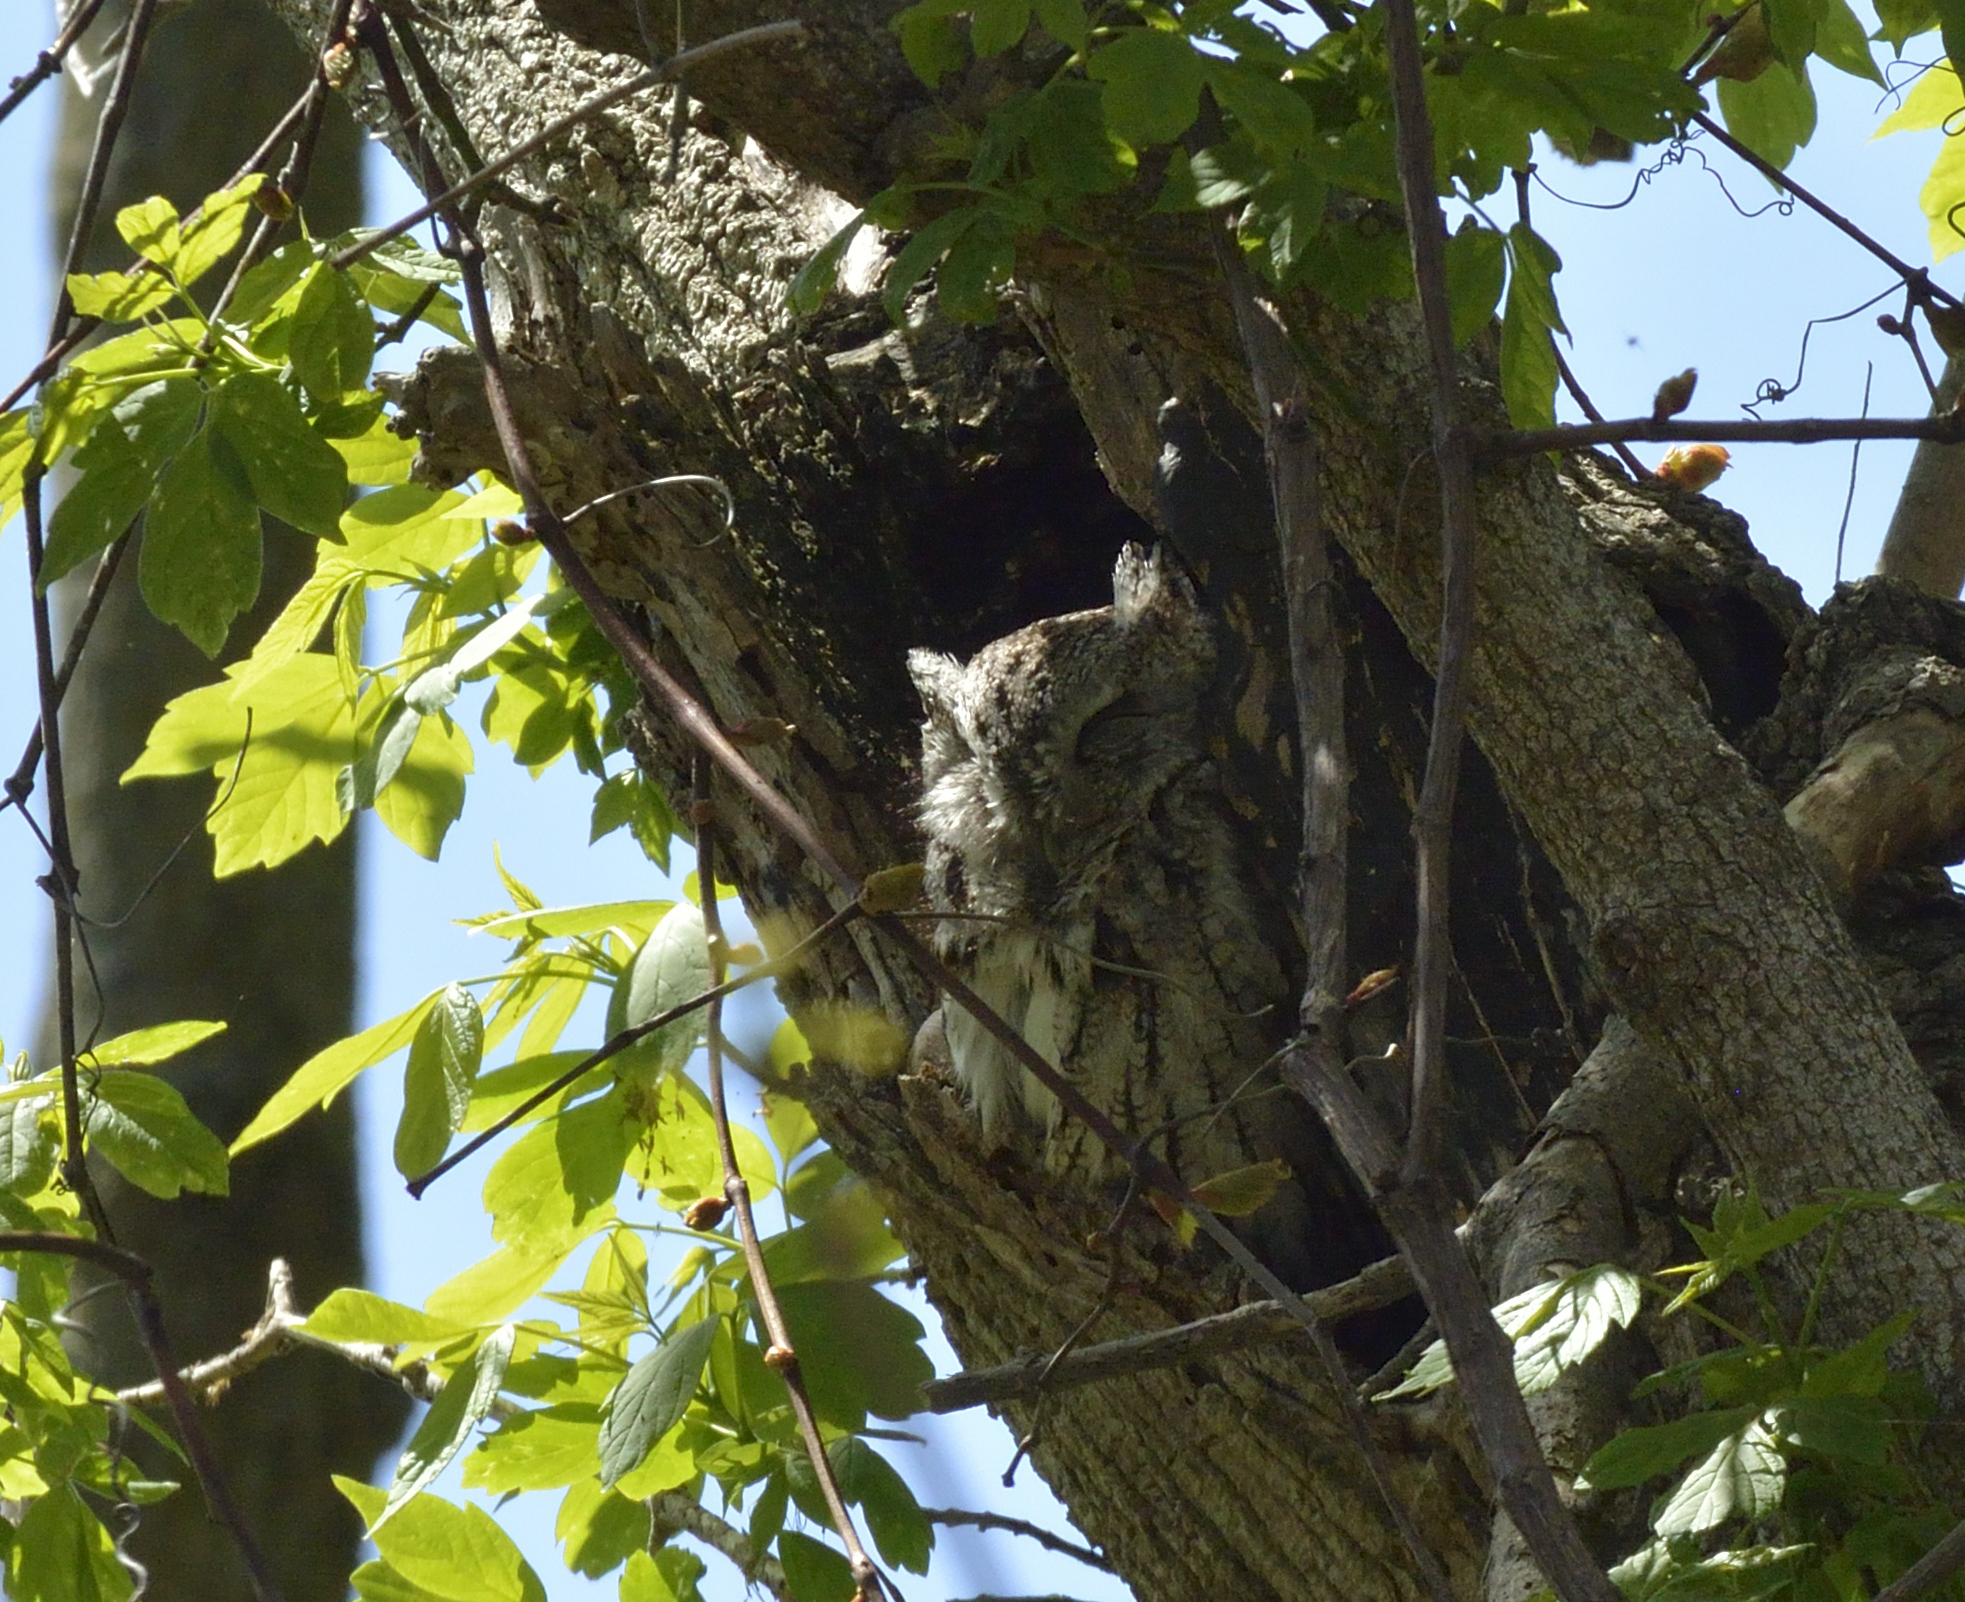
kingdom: Animalia
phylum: Chordata
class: Aves
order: Strigiformes
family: Strigidae
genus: Megascops
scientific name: Megascops asio
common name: Eastern screech-owl
